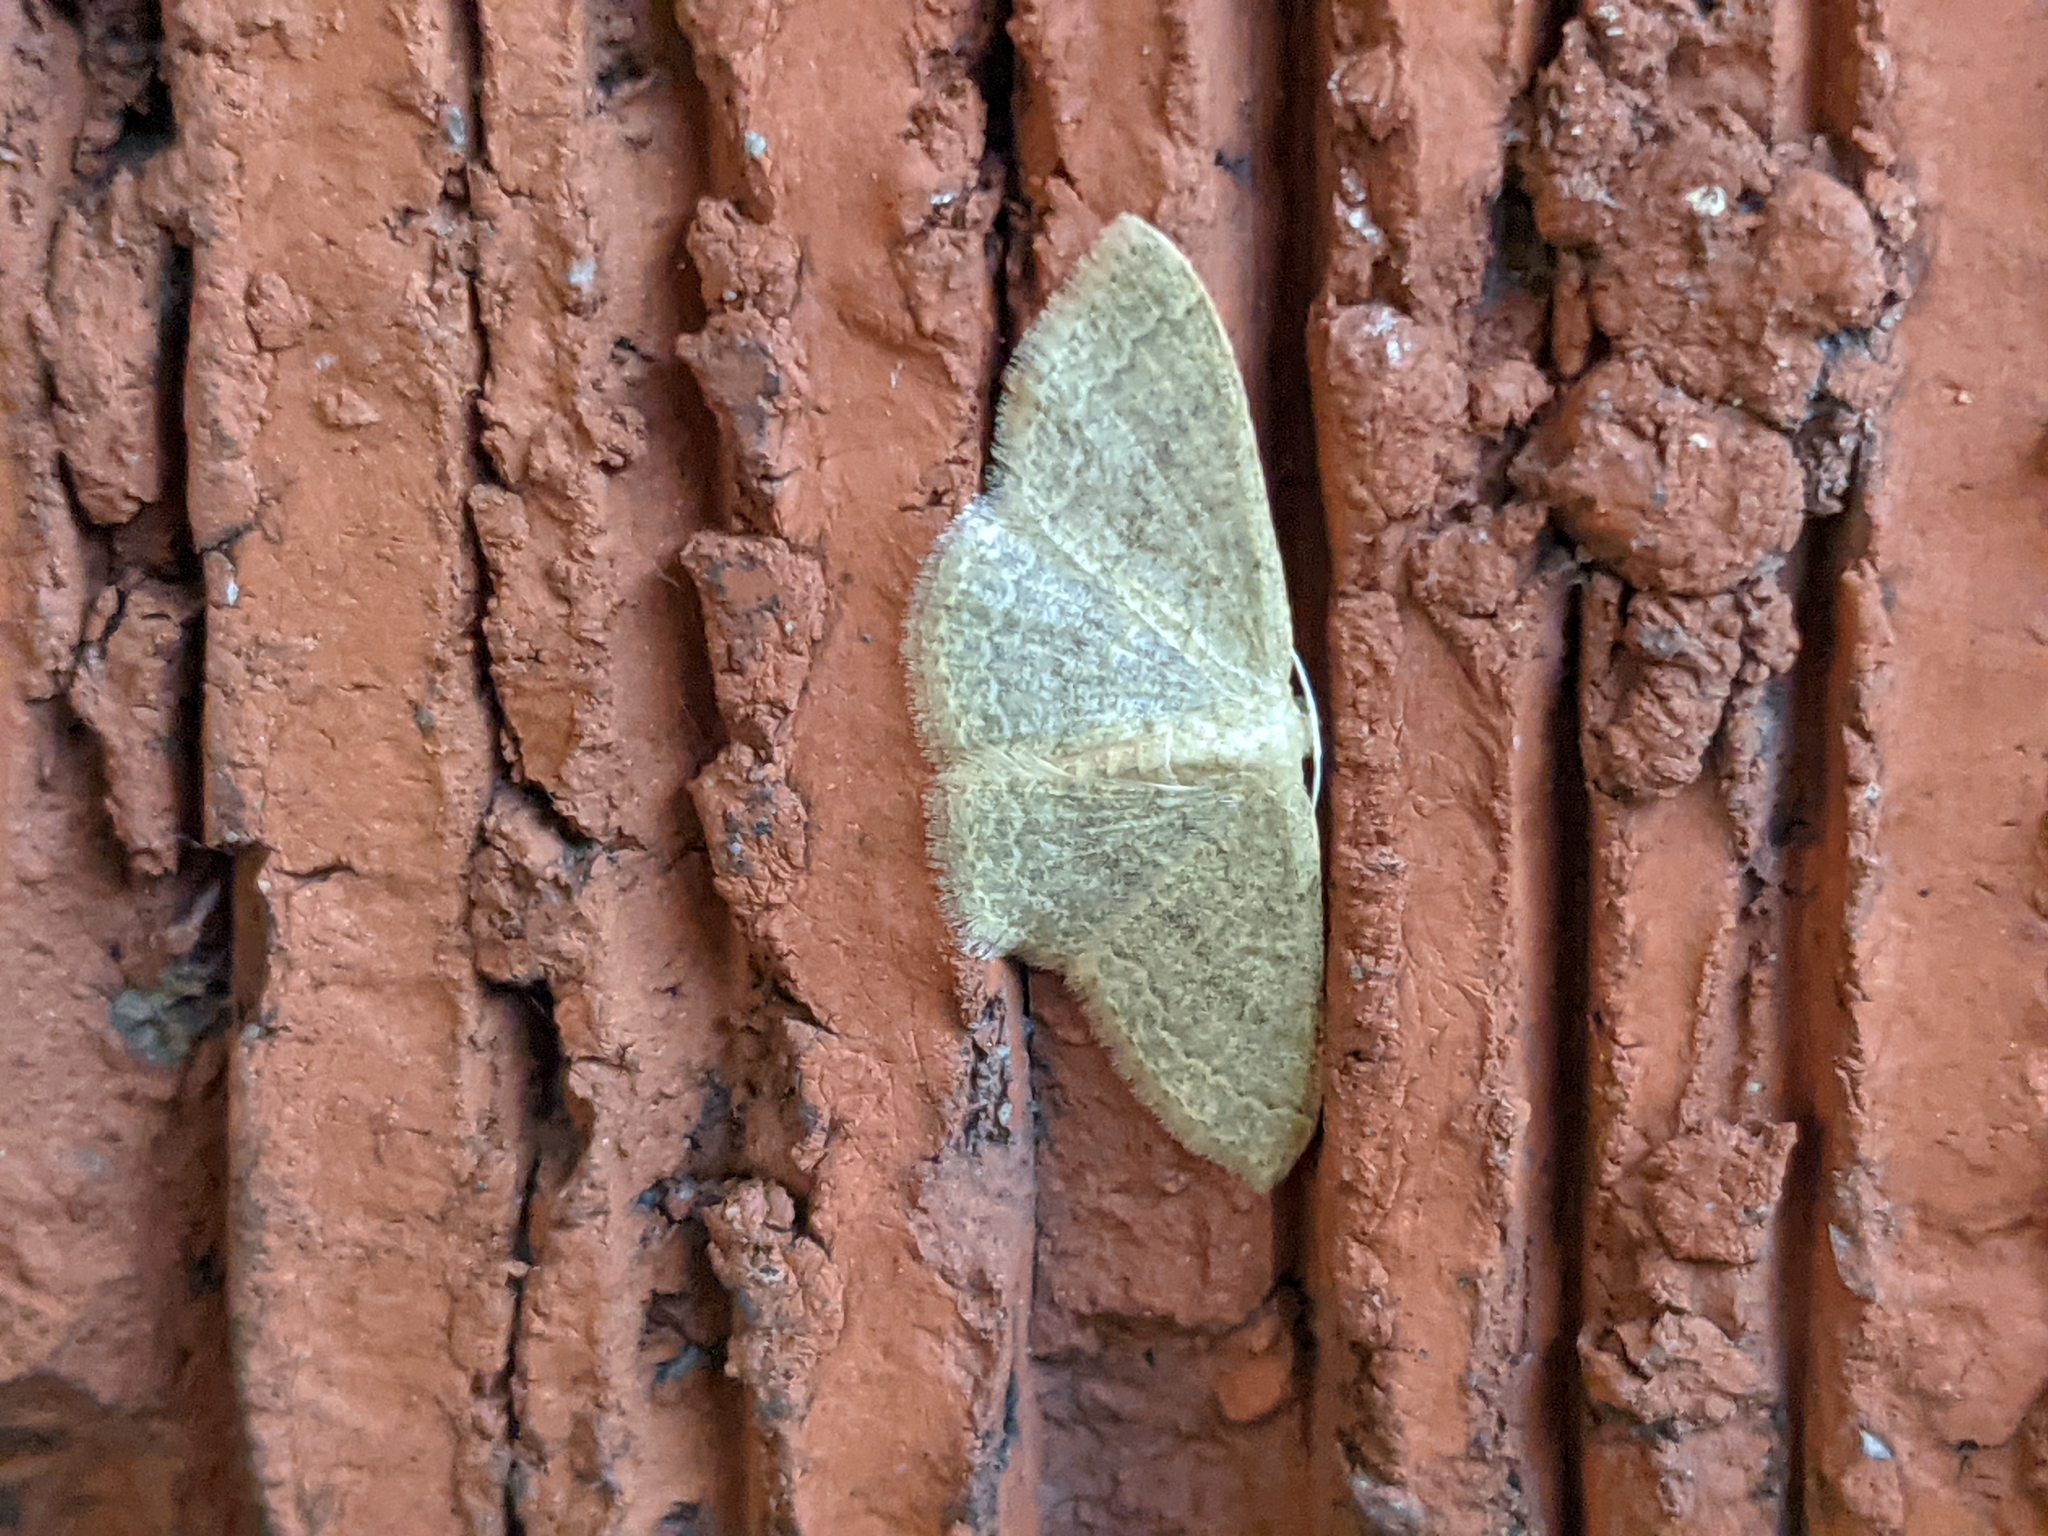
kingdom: Animalia
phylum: Arthropoda
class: Insecta
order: Lepidoptera
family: Geometridae
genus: Pleuroprucha
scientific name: Pleuroprucha insulsaria
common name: Common tan wave
